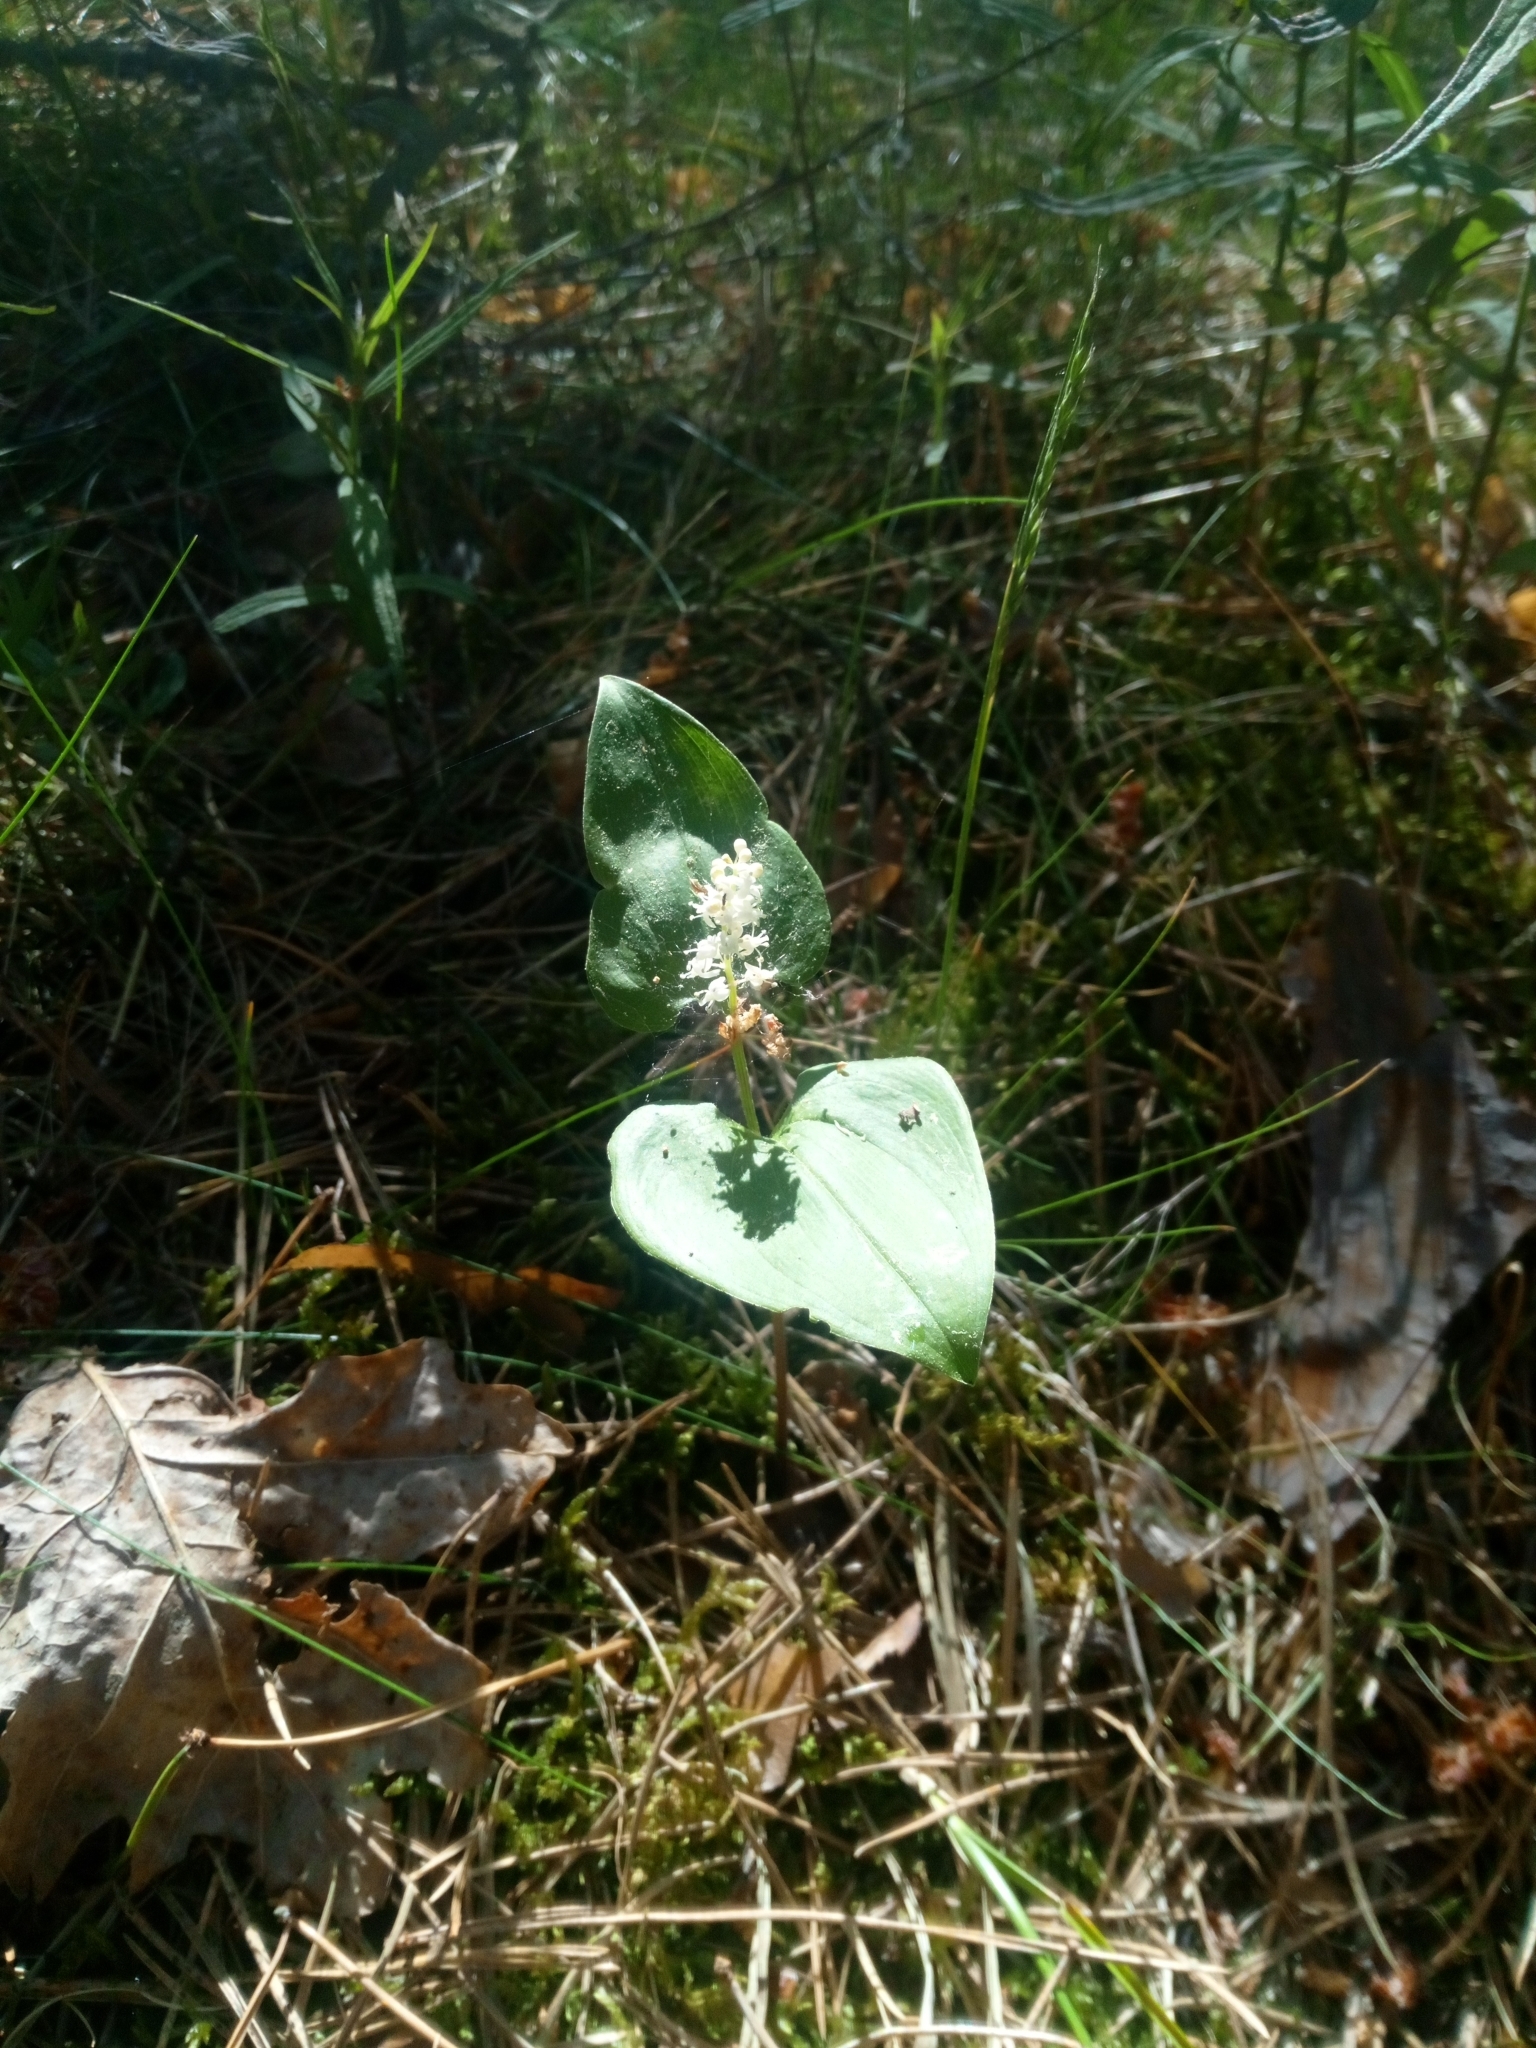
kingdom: Plantae
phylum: Tracheophyta
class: Liliopsida
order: Asparagales
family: Asparagaceae
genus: Maianthemum
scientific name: Maianthemum bifolium
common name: May lily
